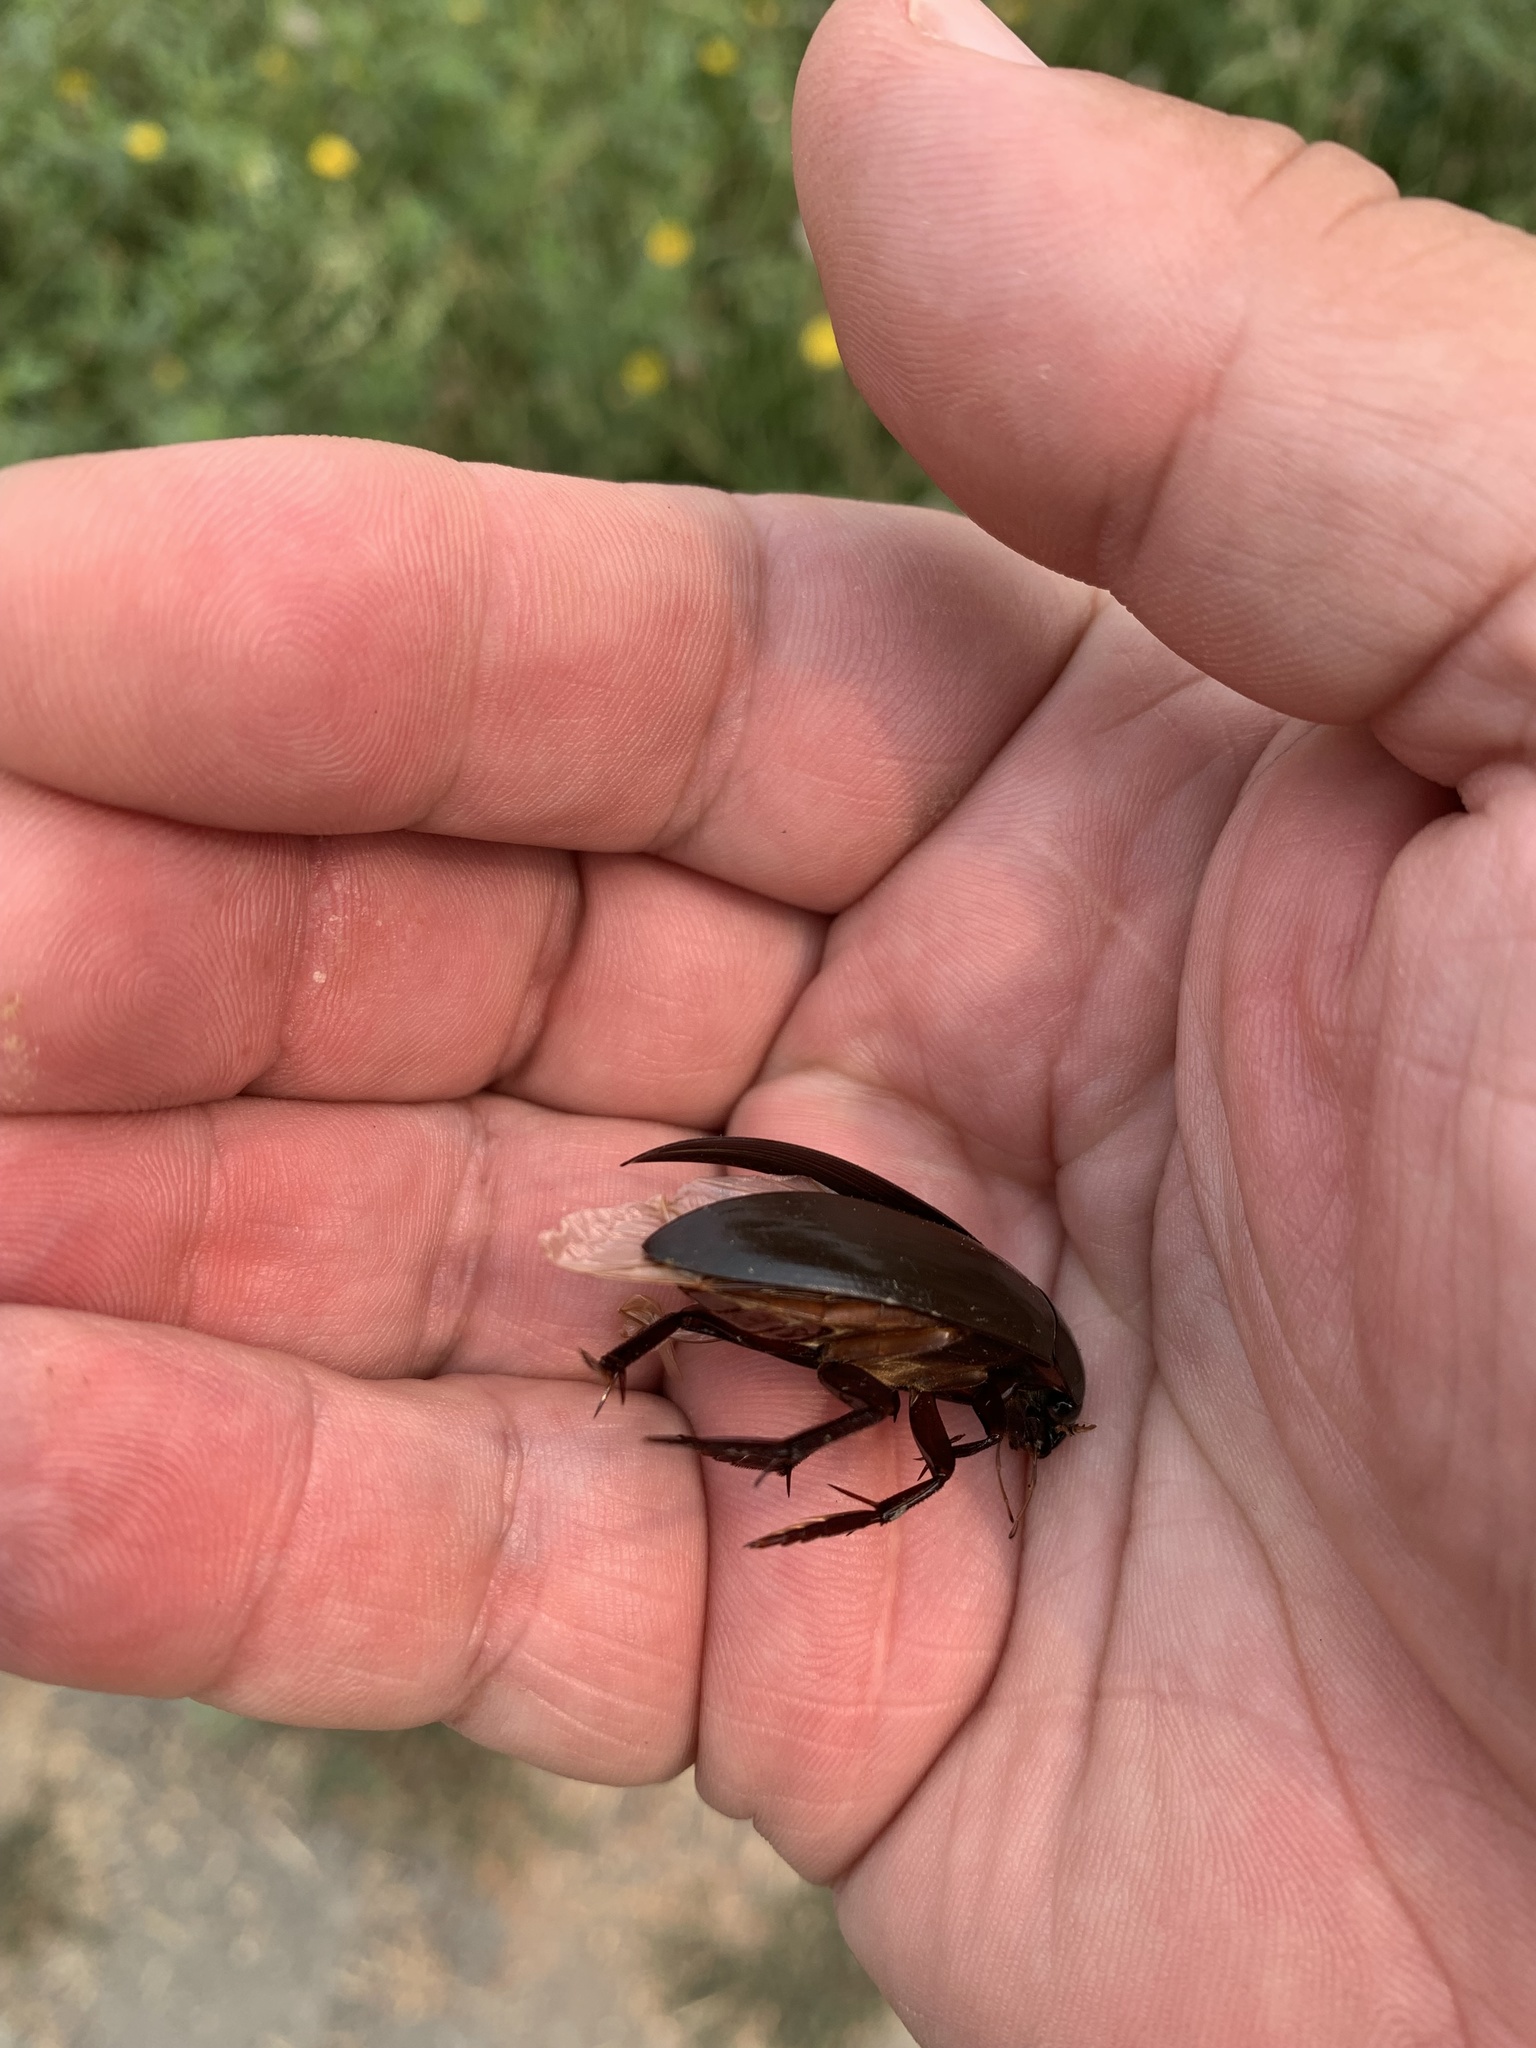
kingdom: Animalia
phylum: Arthropoda
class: Insecta
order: Coleoptera
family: Hydrophilidae
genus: Hydrophilus
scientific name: Hydrophilus triangularis
